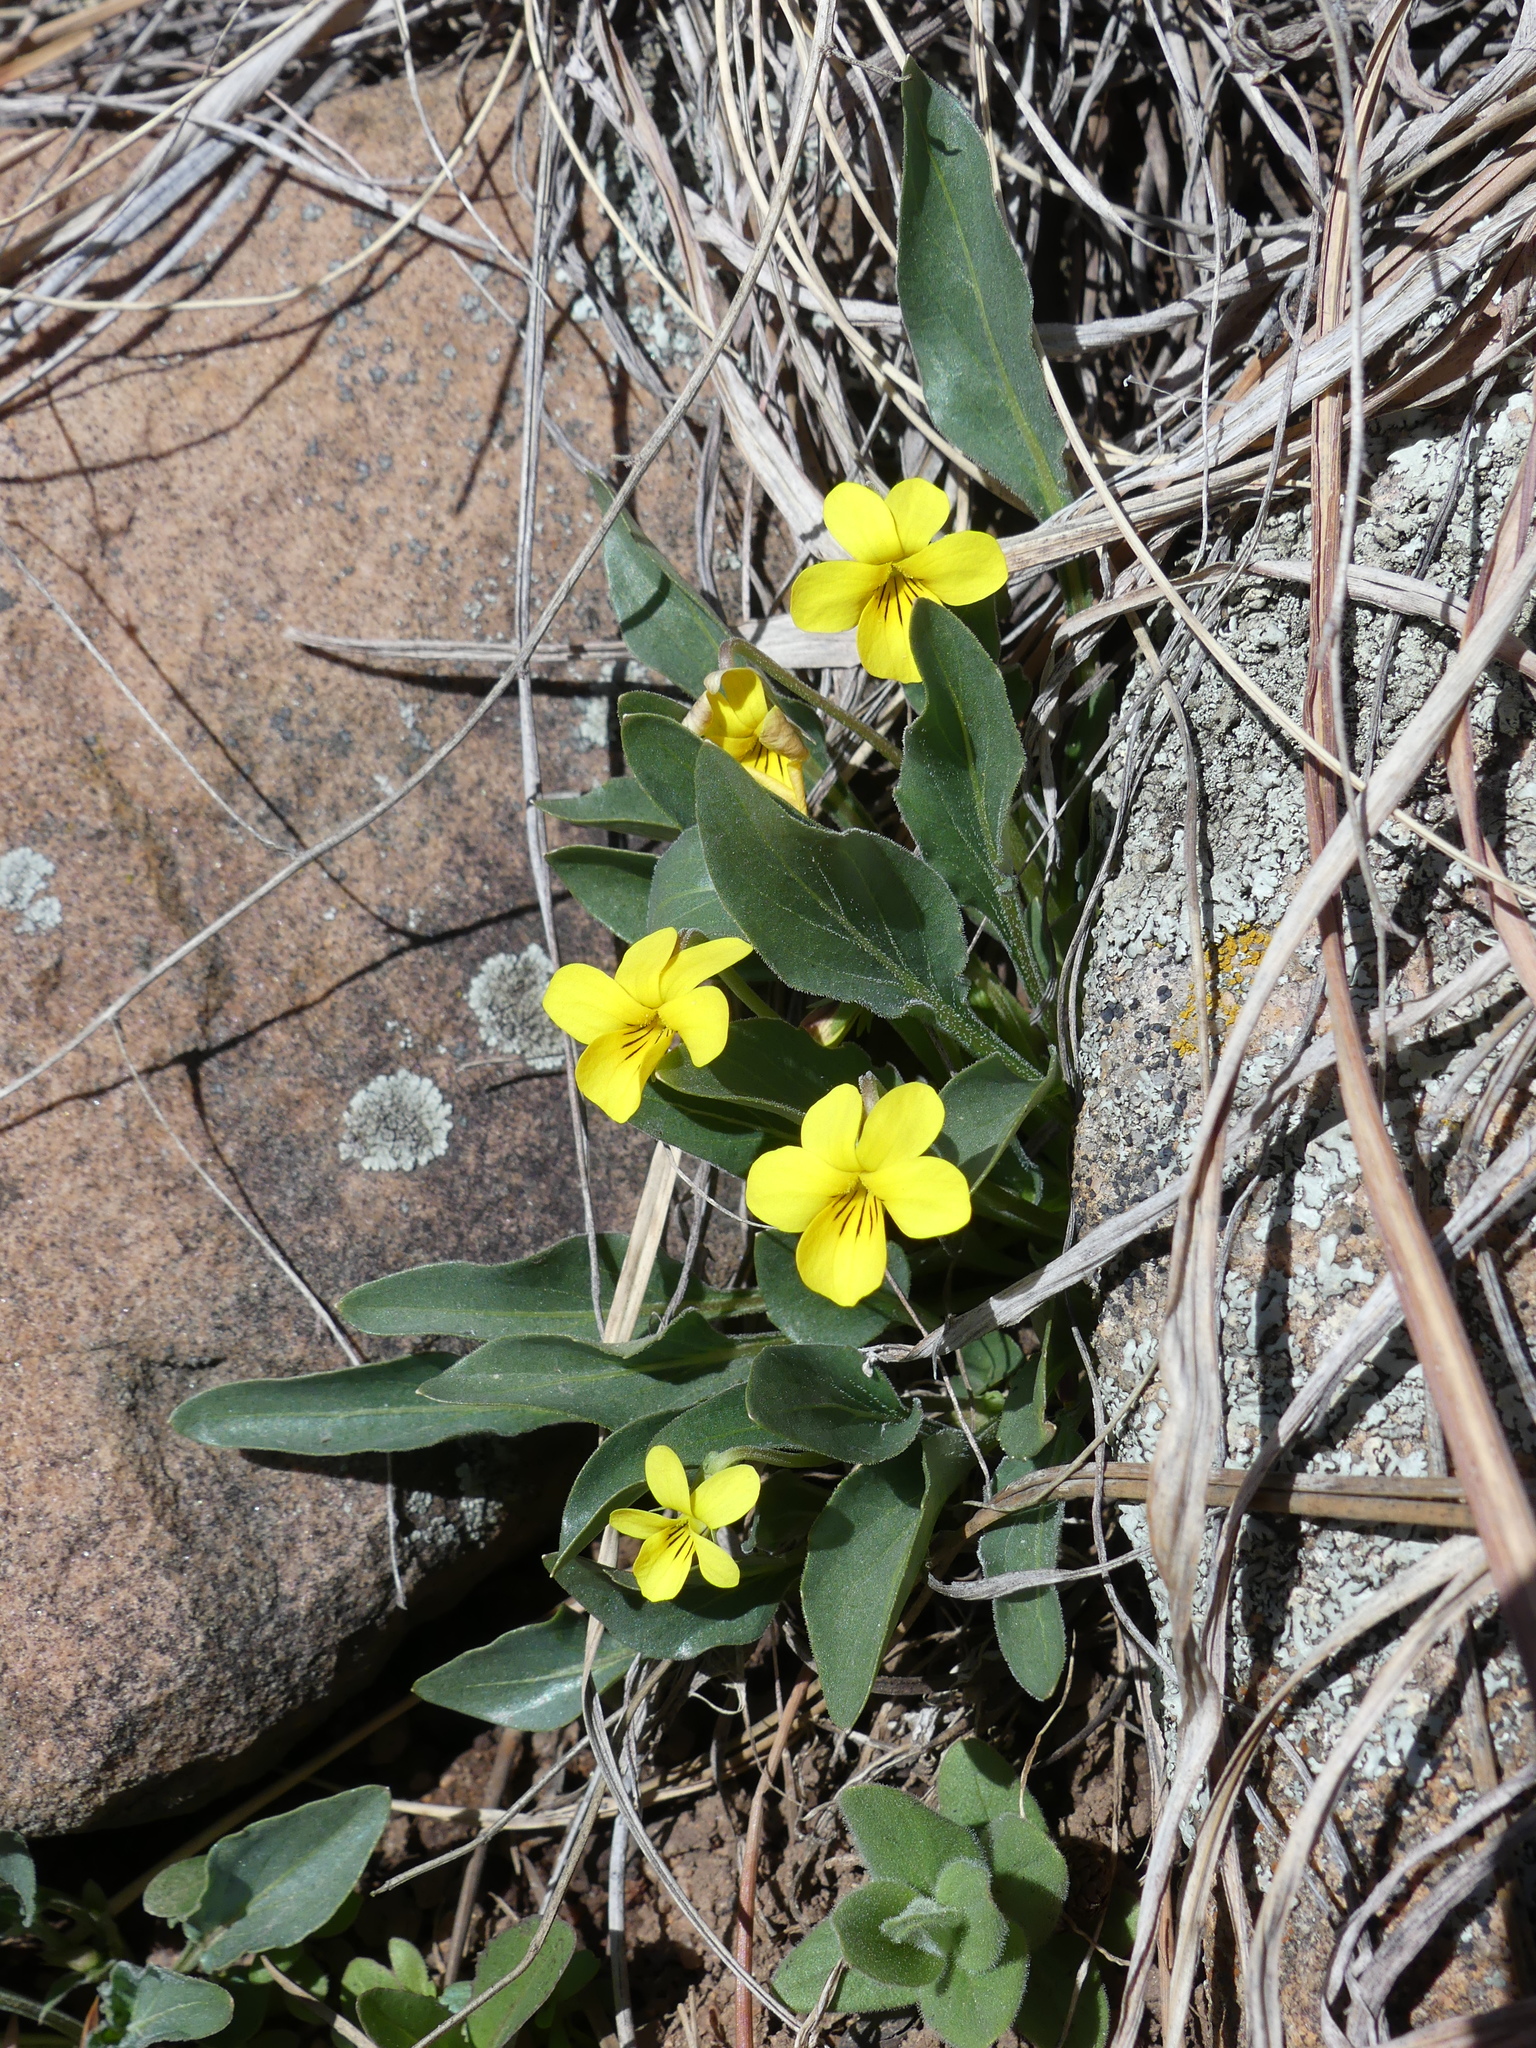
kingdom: Plantae
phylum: Tracheophyta
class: Magnoliopsida
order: Malpighiales
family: Violaceae
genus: Viola
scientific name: Viola nuttallii
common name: Yellow prairie violet
